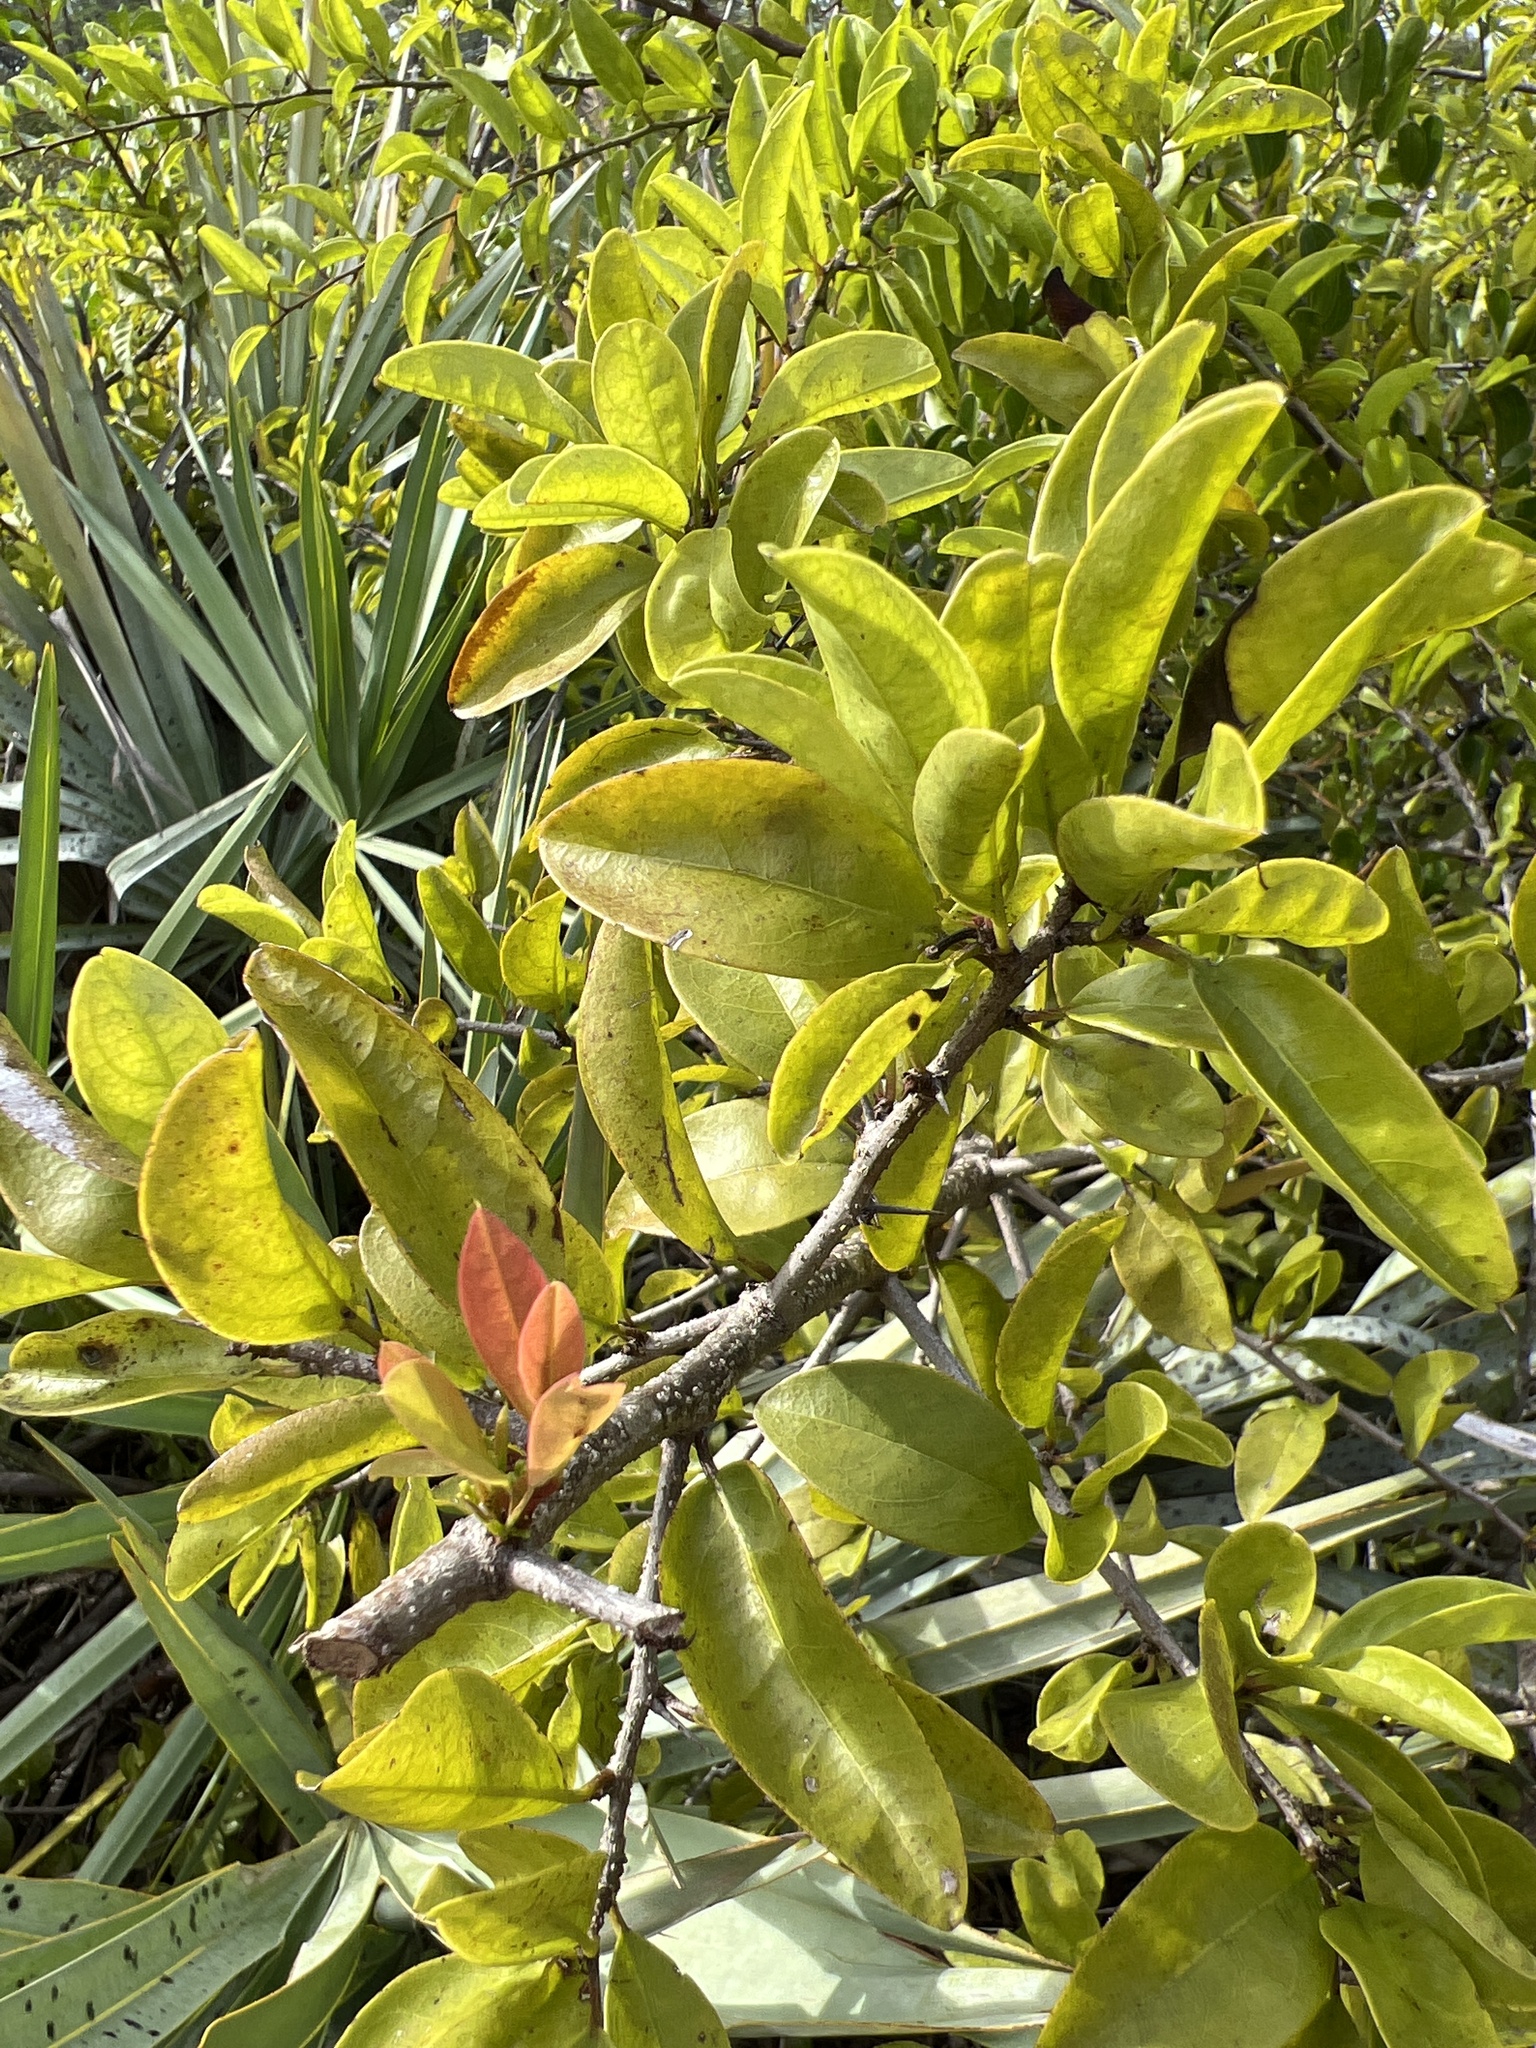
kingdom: Plantae
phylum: Tracheophyta
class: Magnoliopsida
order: Santalales
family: Ximeniaceae
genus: Ximenia
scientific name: Ximenia americana
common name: Tallowwood
